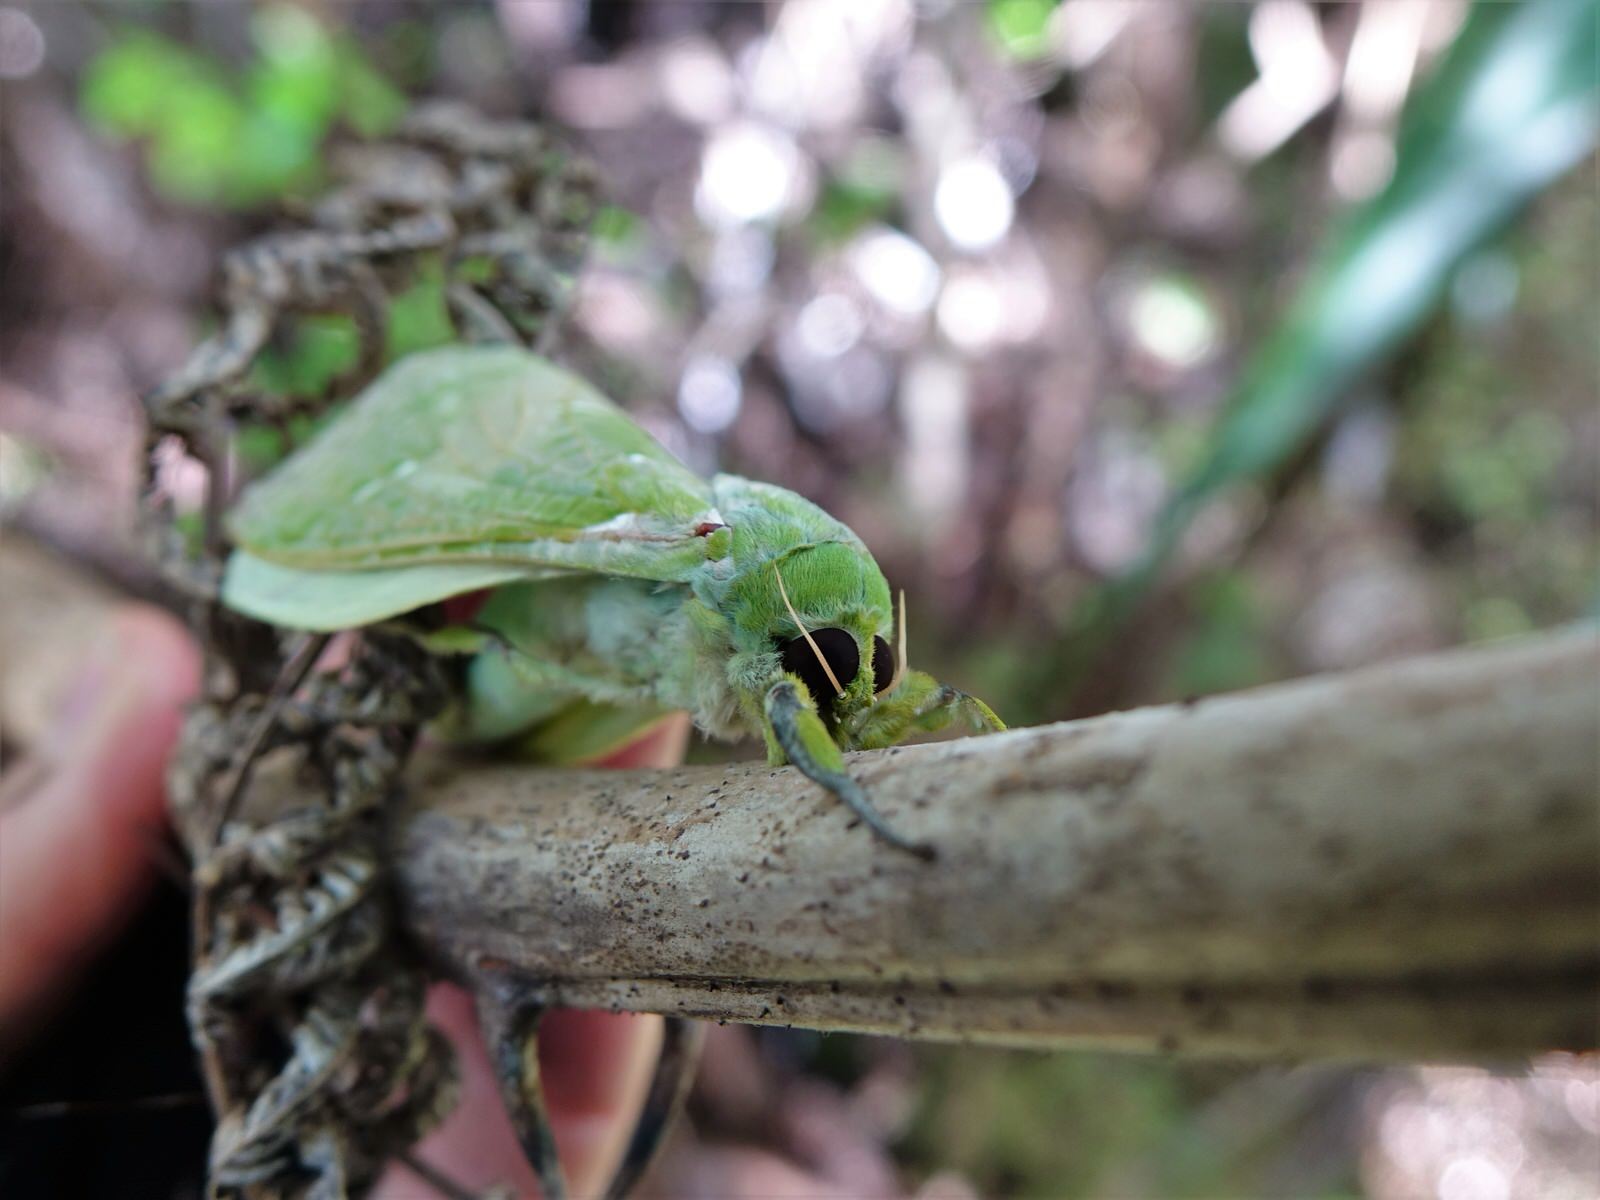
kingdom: Animalia
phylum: Arthropoda
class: Insecta
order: Lepidoptera
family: Hepialidae
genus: Aenetus
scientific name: Aenetus virescens
